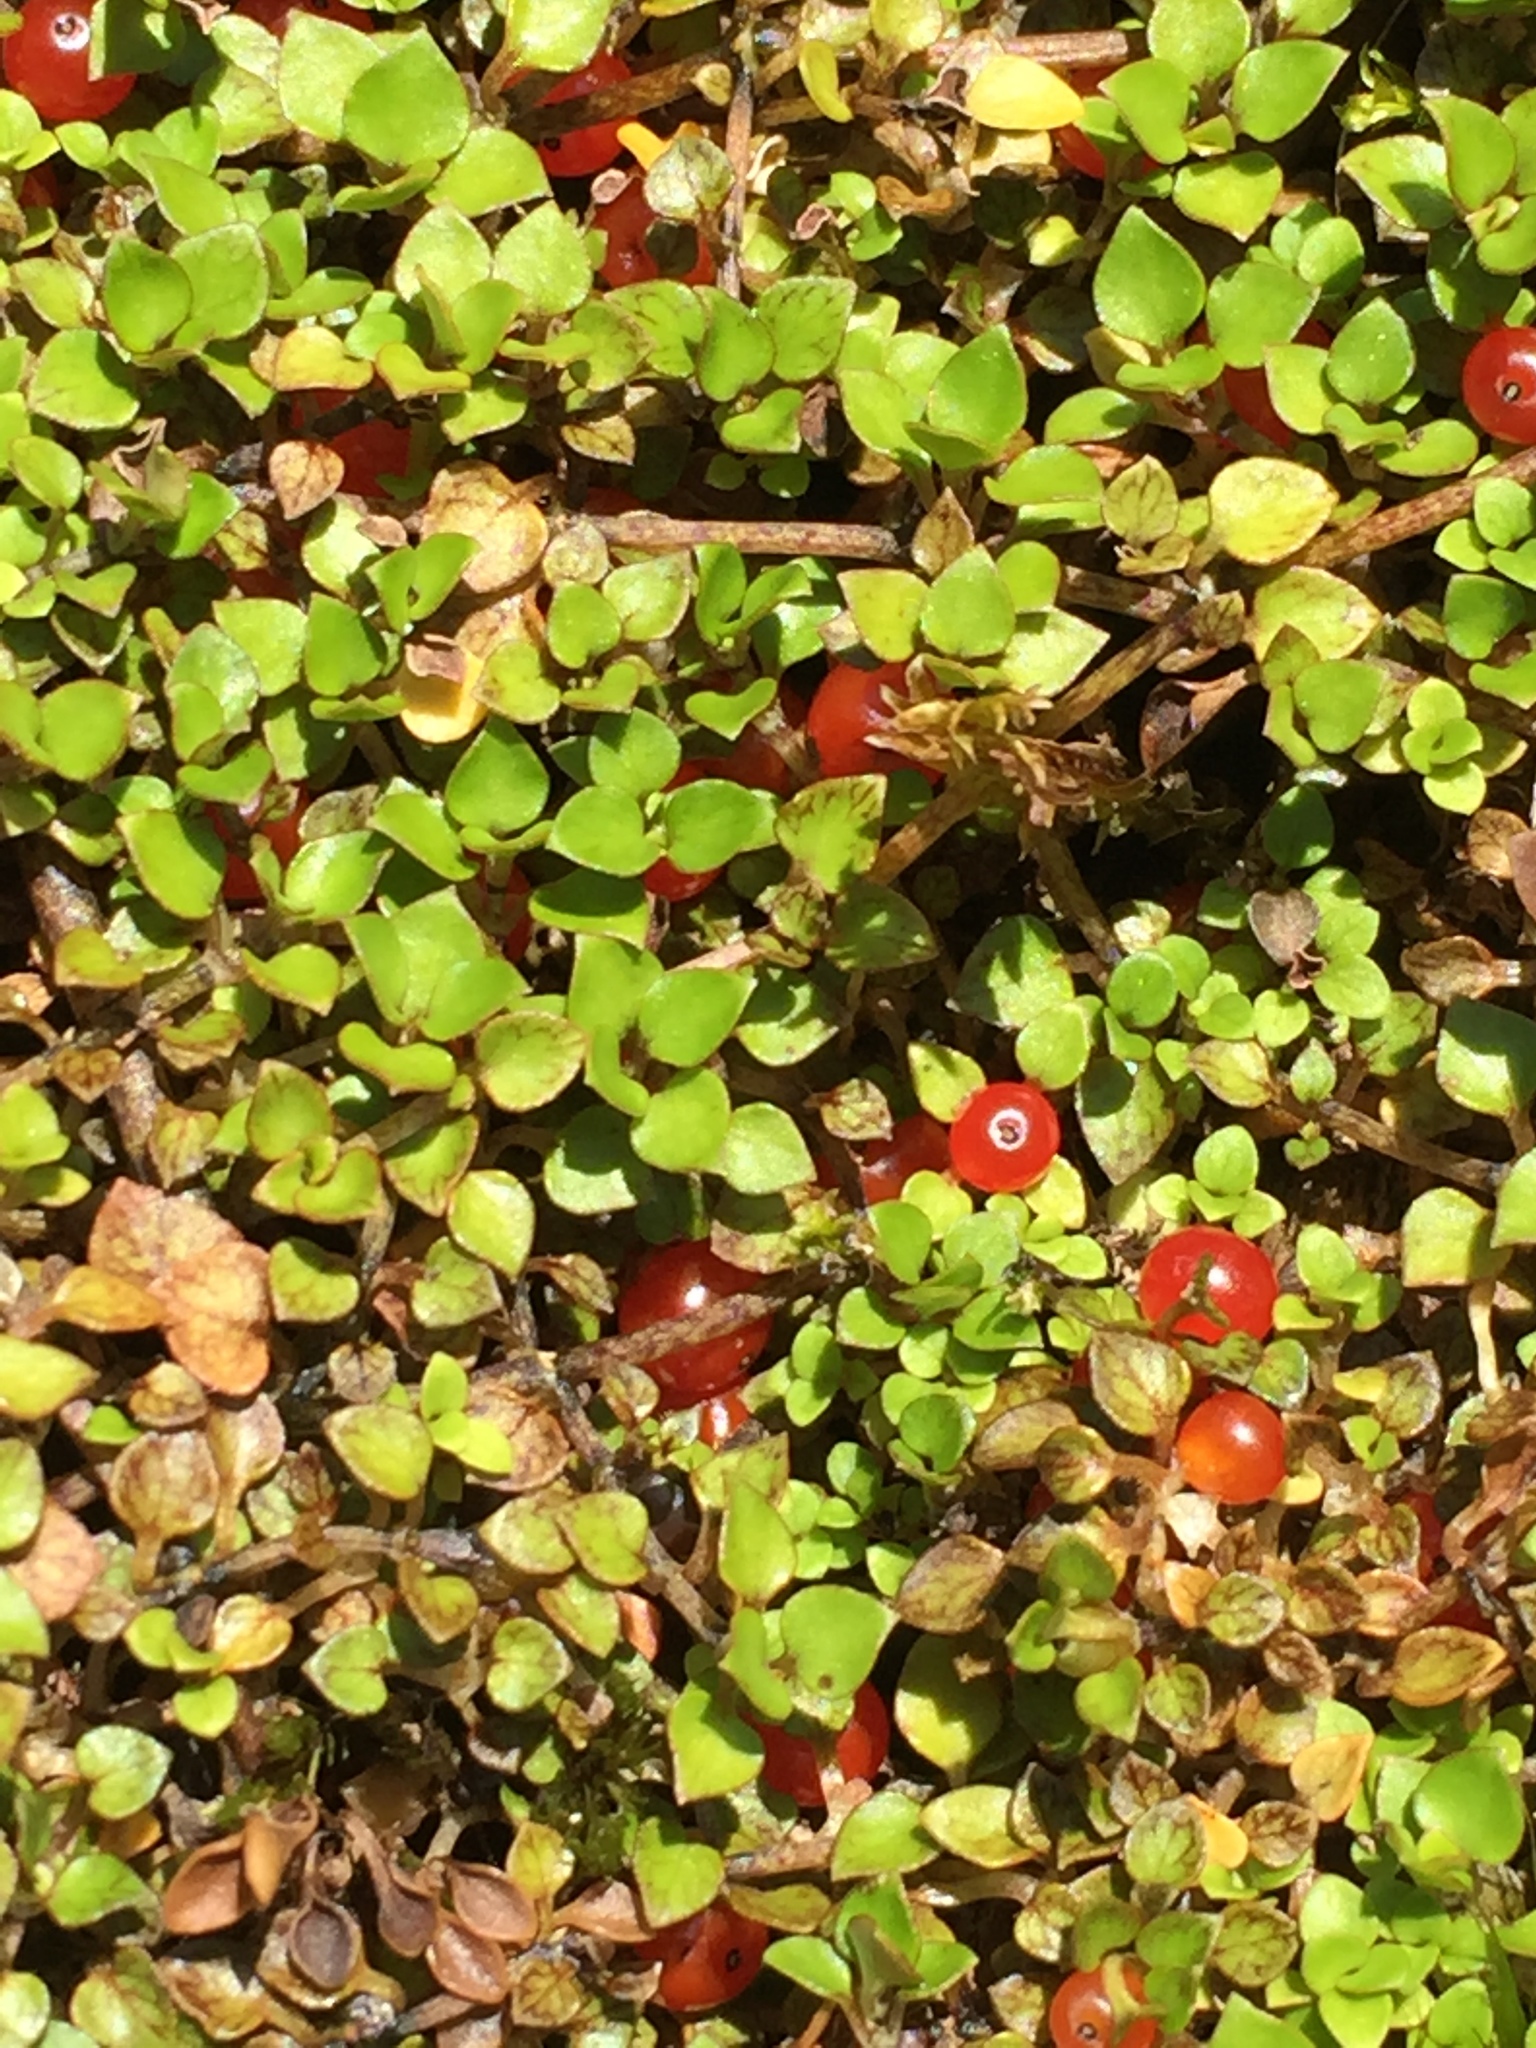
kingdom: Plantae
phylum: Tracheophyta
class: Magnoliopsida
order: Gentianales
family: Rubiaceae
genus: Nertera
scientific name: Nertera granadensis
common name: Beadplant
